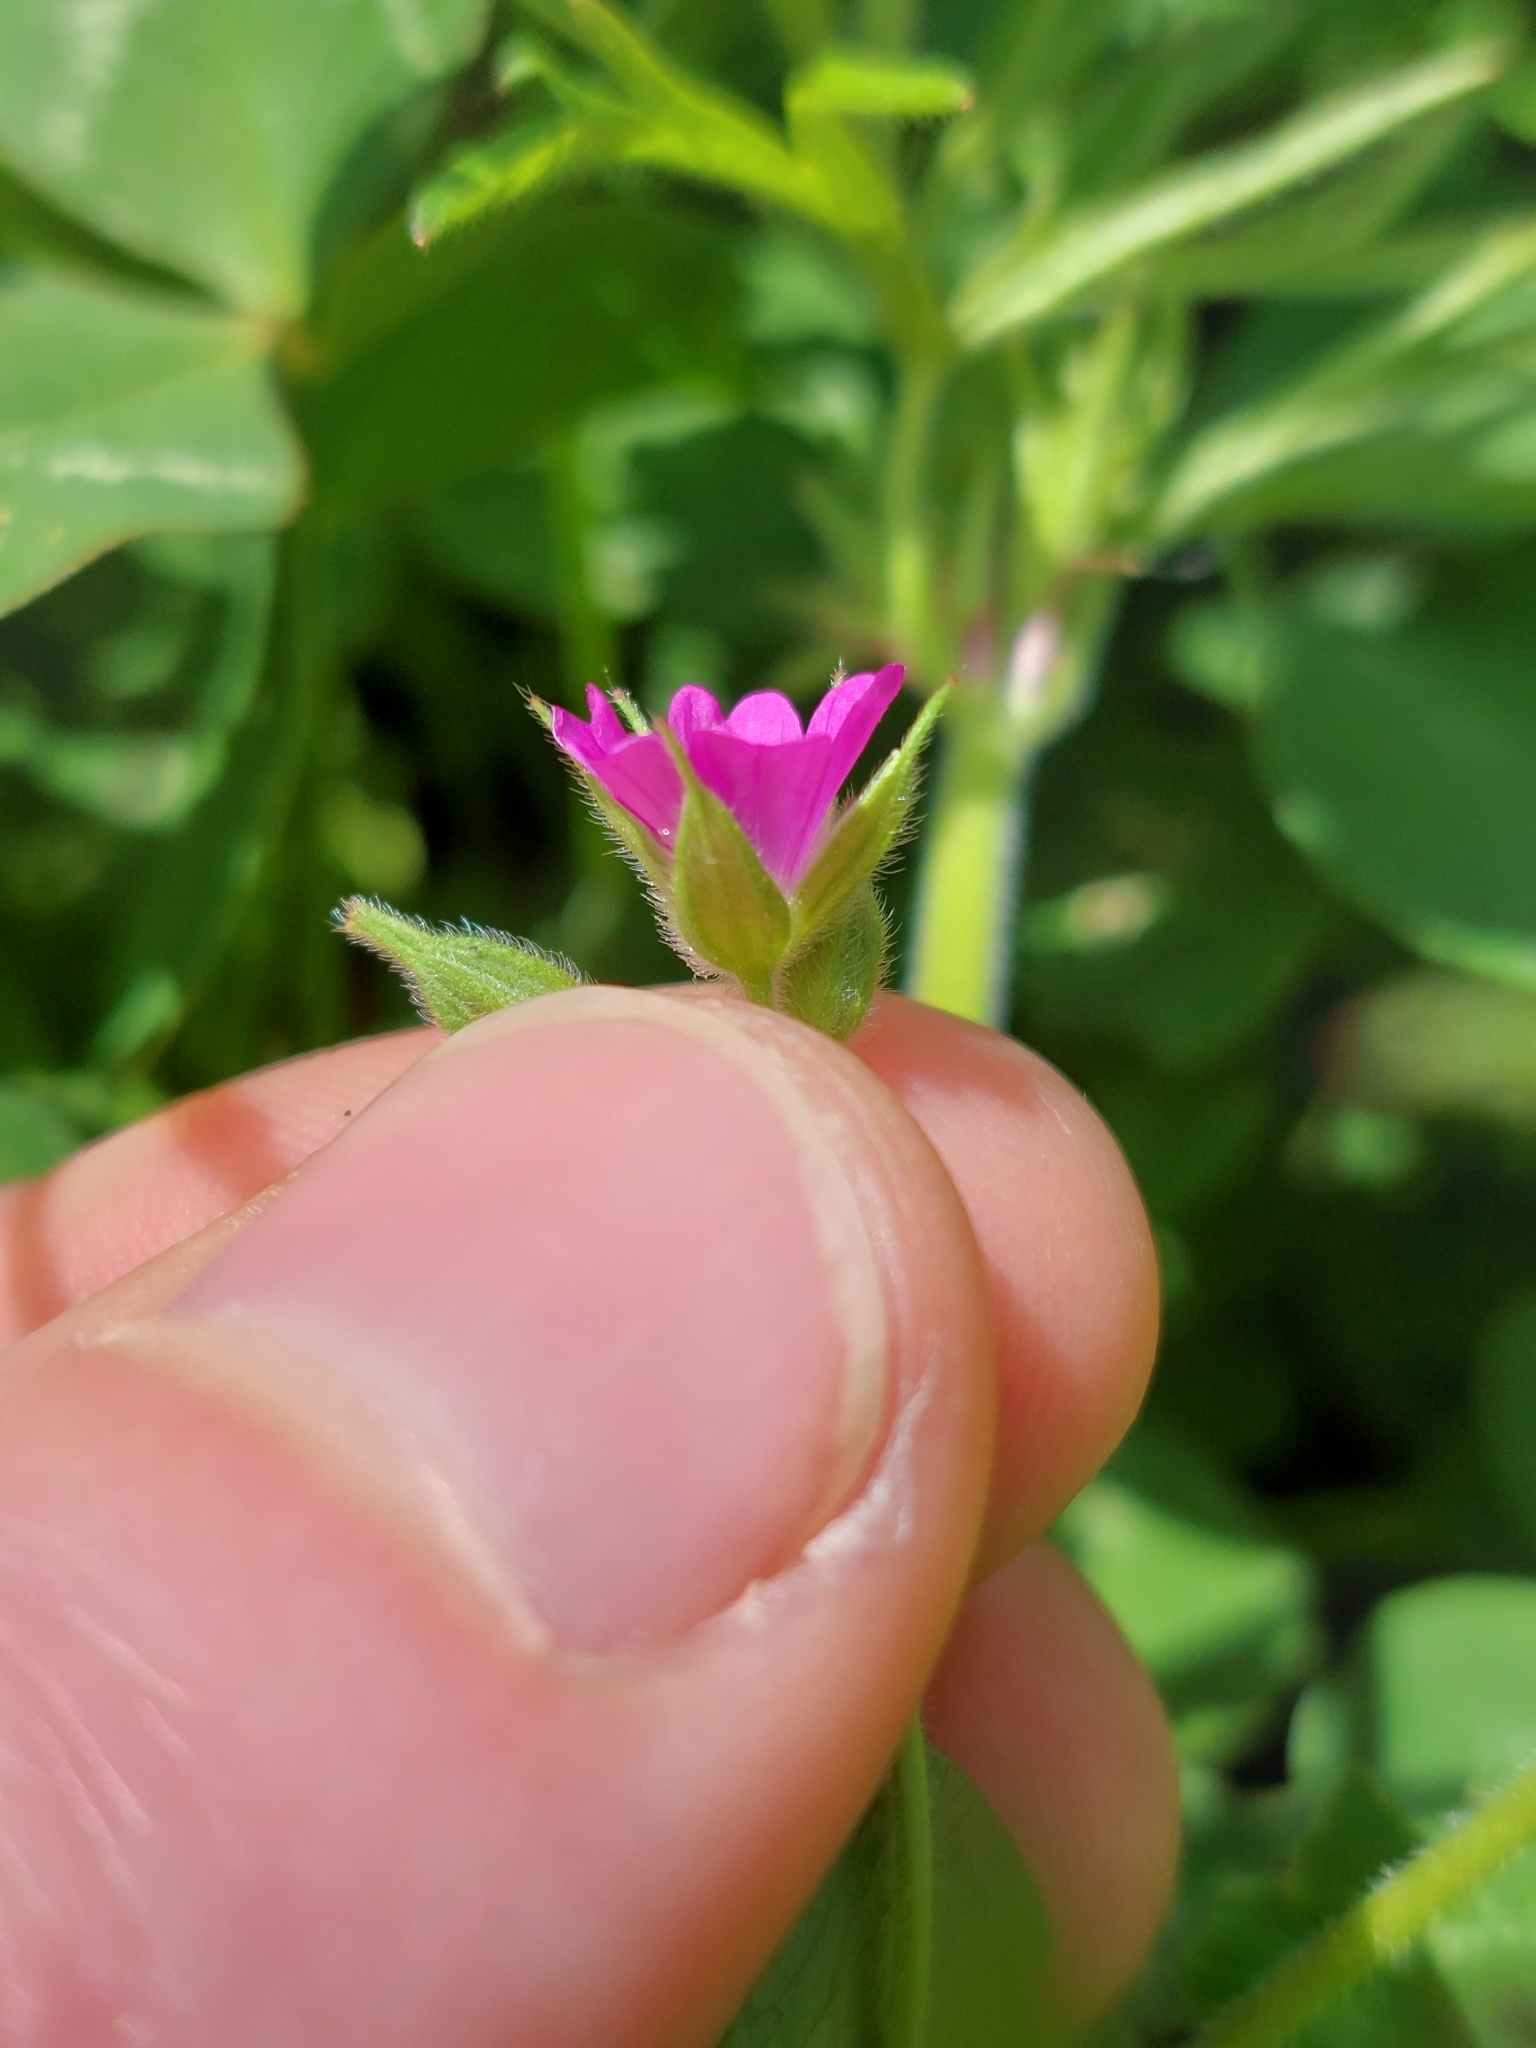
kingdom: Plantae
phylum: Tracheophyta
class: Magnoliopsida
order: Geraniales
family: Geraniaceae
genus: Geranium
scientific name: Geranium dissectum
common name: Cut-leaved crane's-bill
